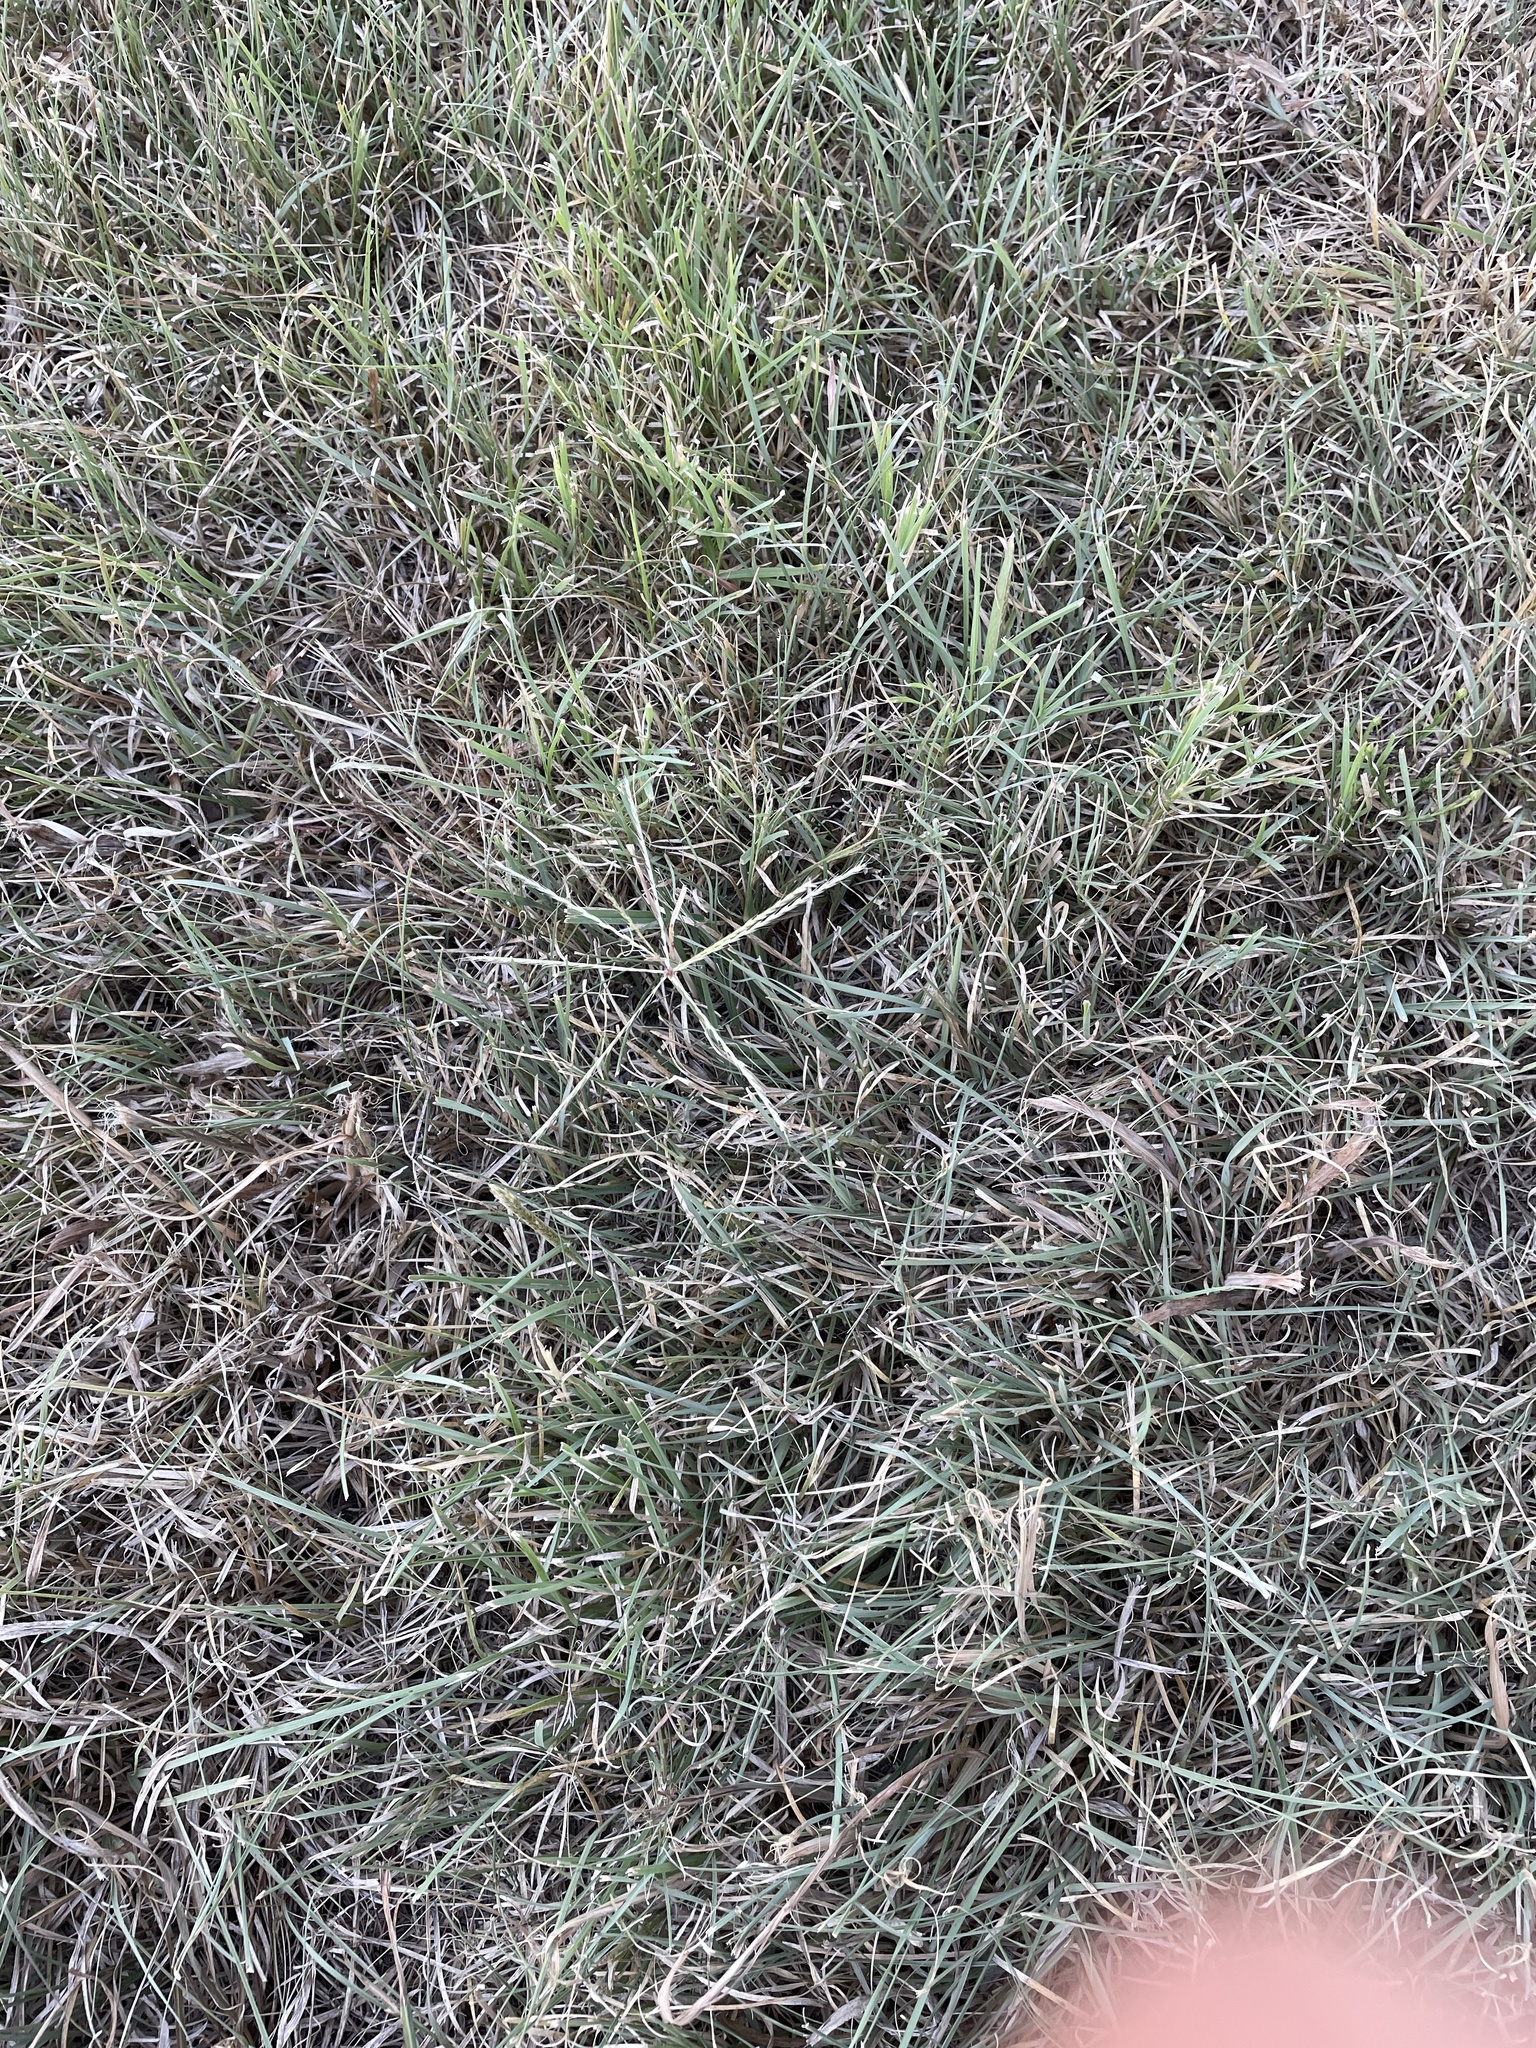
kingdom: Plantae
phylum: Tracheophyta
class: Liliopsida
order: Poales
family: Poaceae
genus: Chloris
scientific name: Chloris verticillata
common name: Tumble windmill grass
